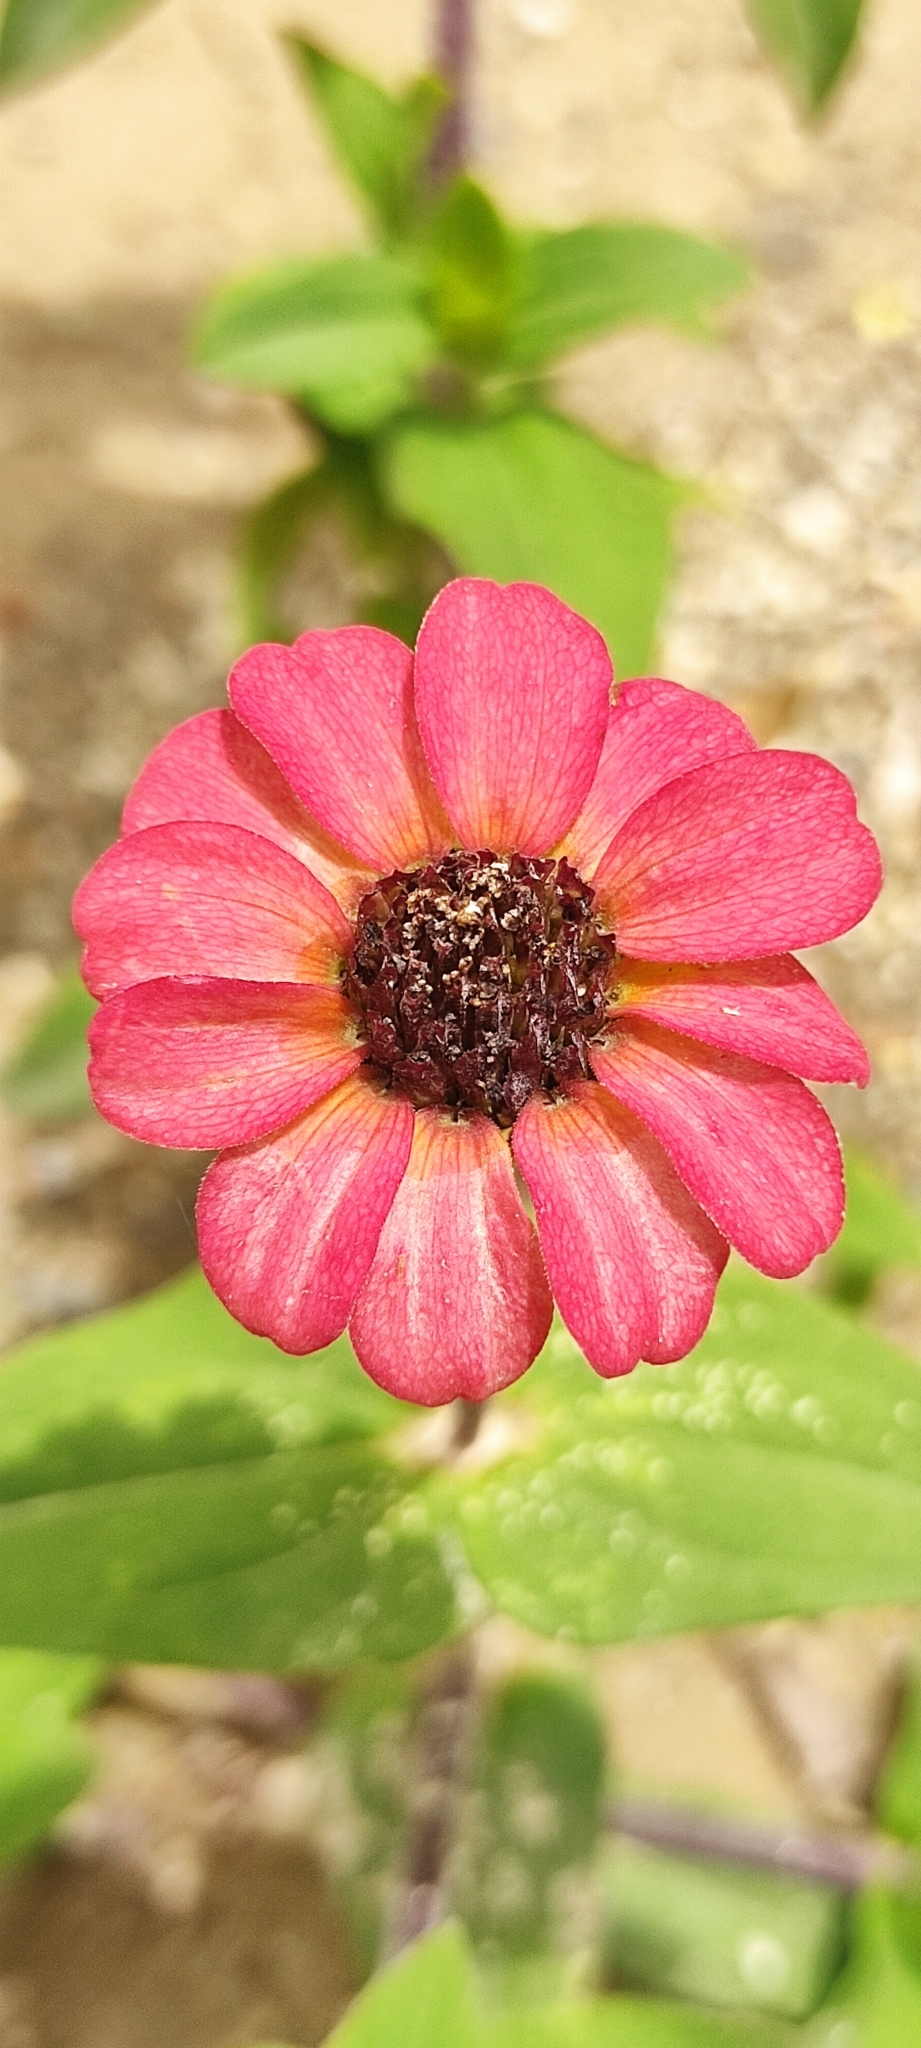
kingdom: Plantae
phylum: Tracheophyta
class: Magnoliopsida
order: Asterales
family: Asteraceae
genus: Zinnia
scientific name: Zinnia peruviana
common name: Peruvian zinnia
